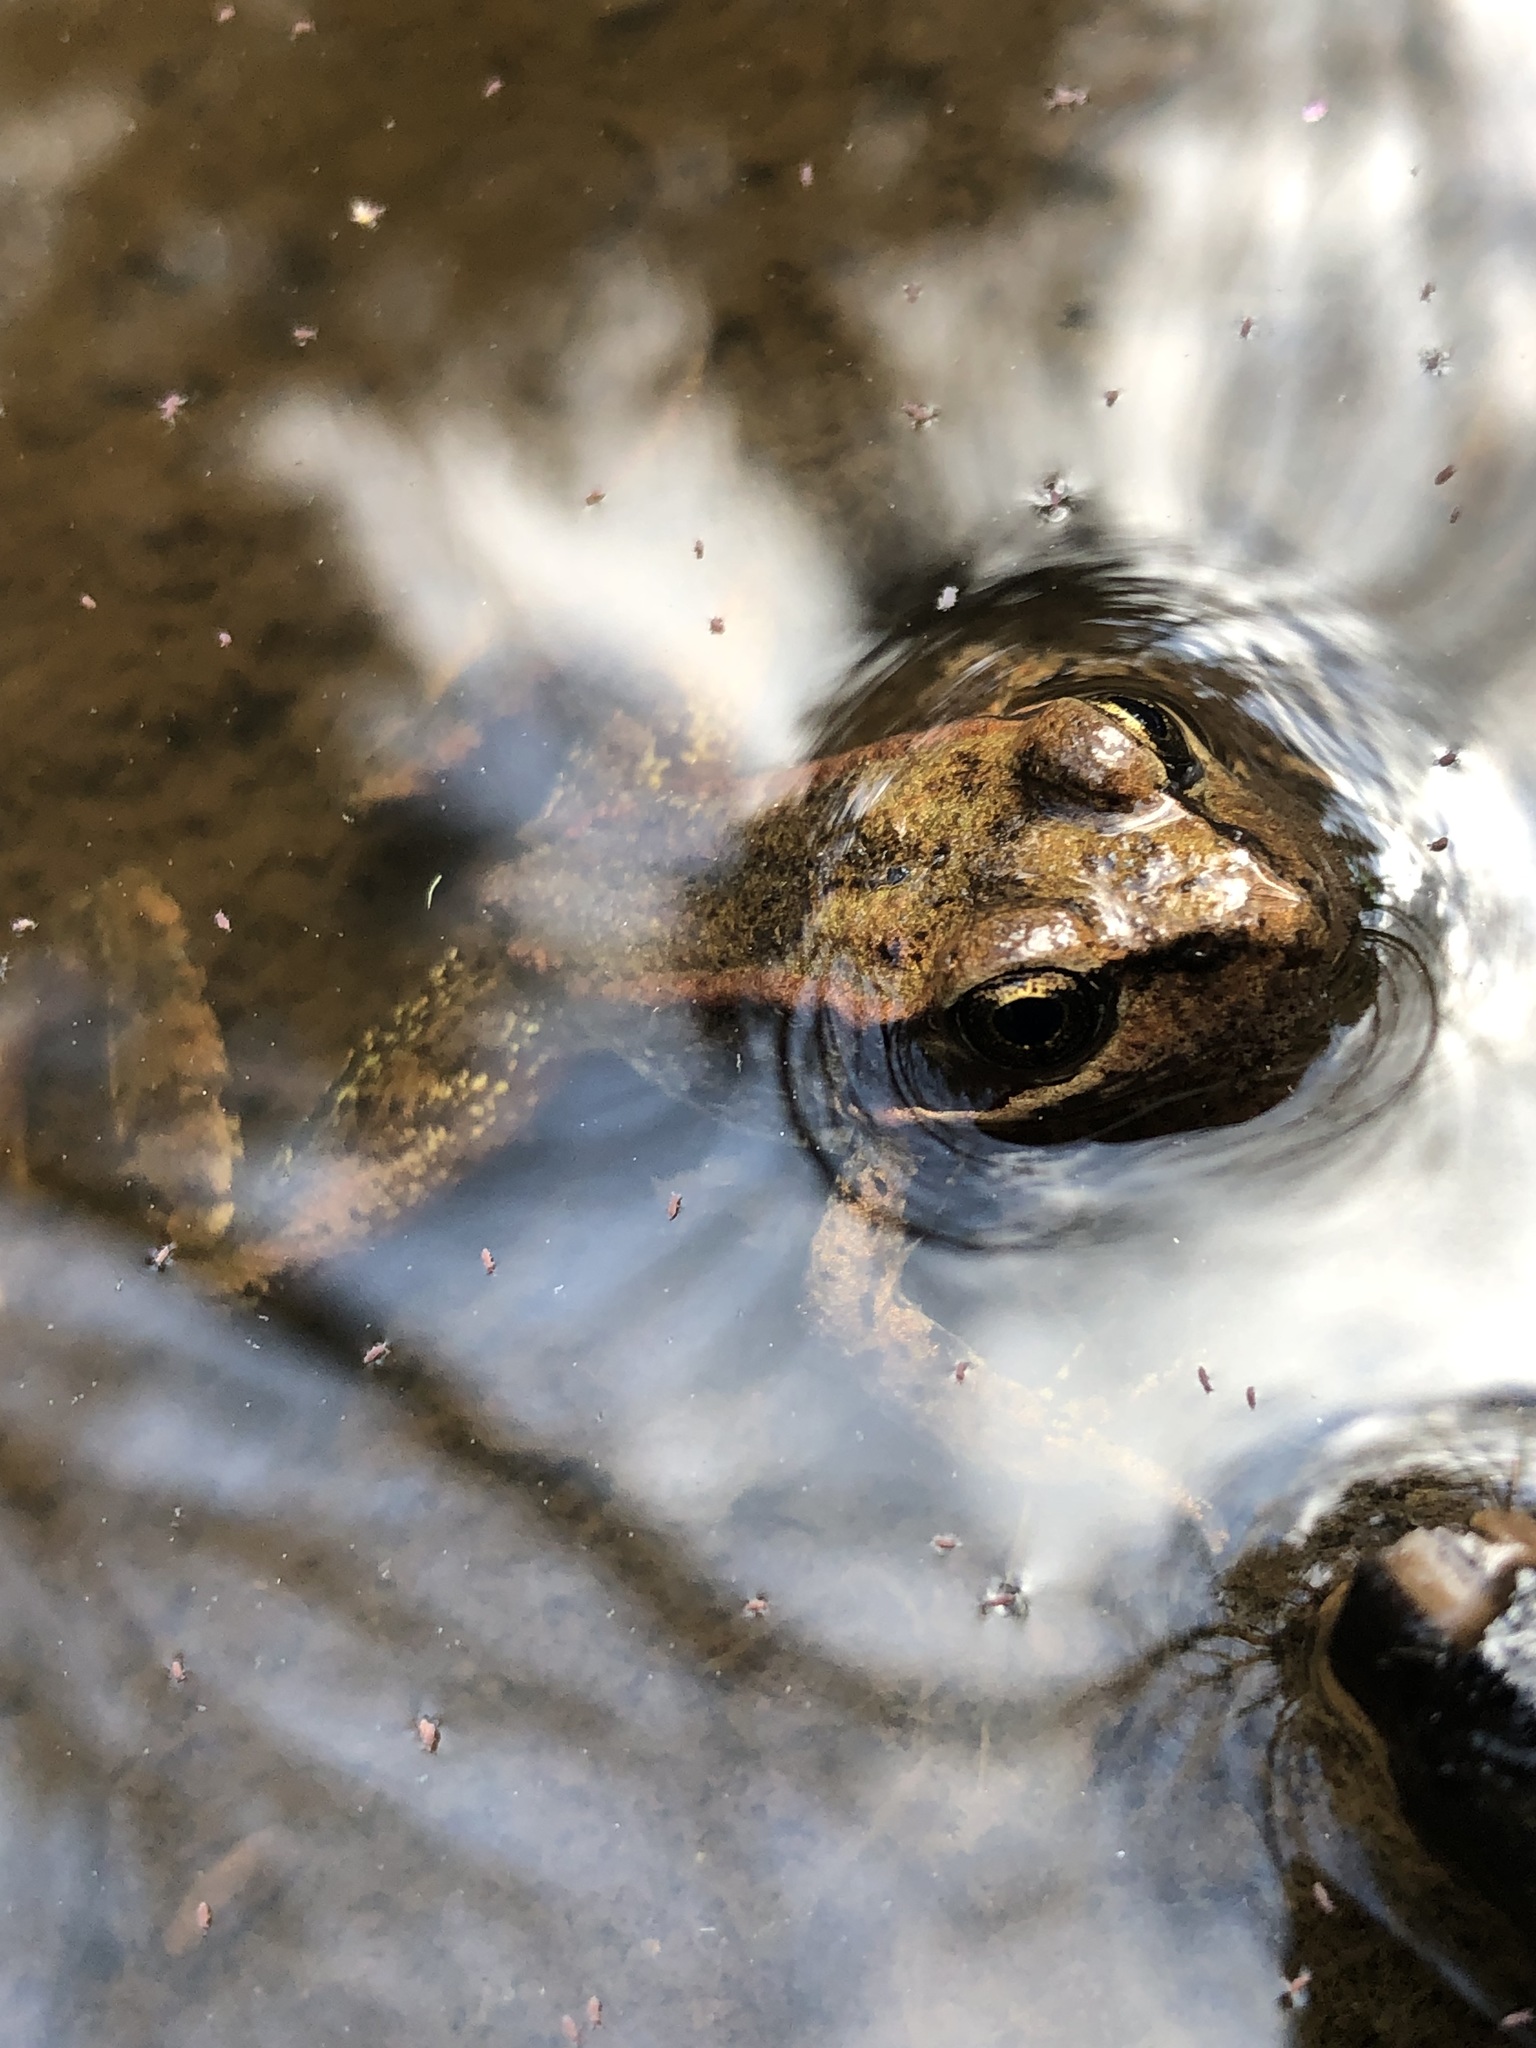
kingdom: Animalia
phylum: Chordata
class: Amphibia
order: Anura
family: Ranidae
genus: Rana
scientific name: Rana aurora
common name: Red-legged frog
